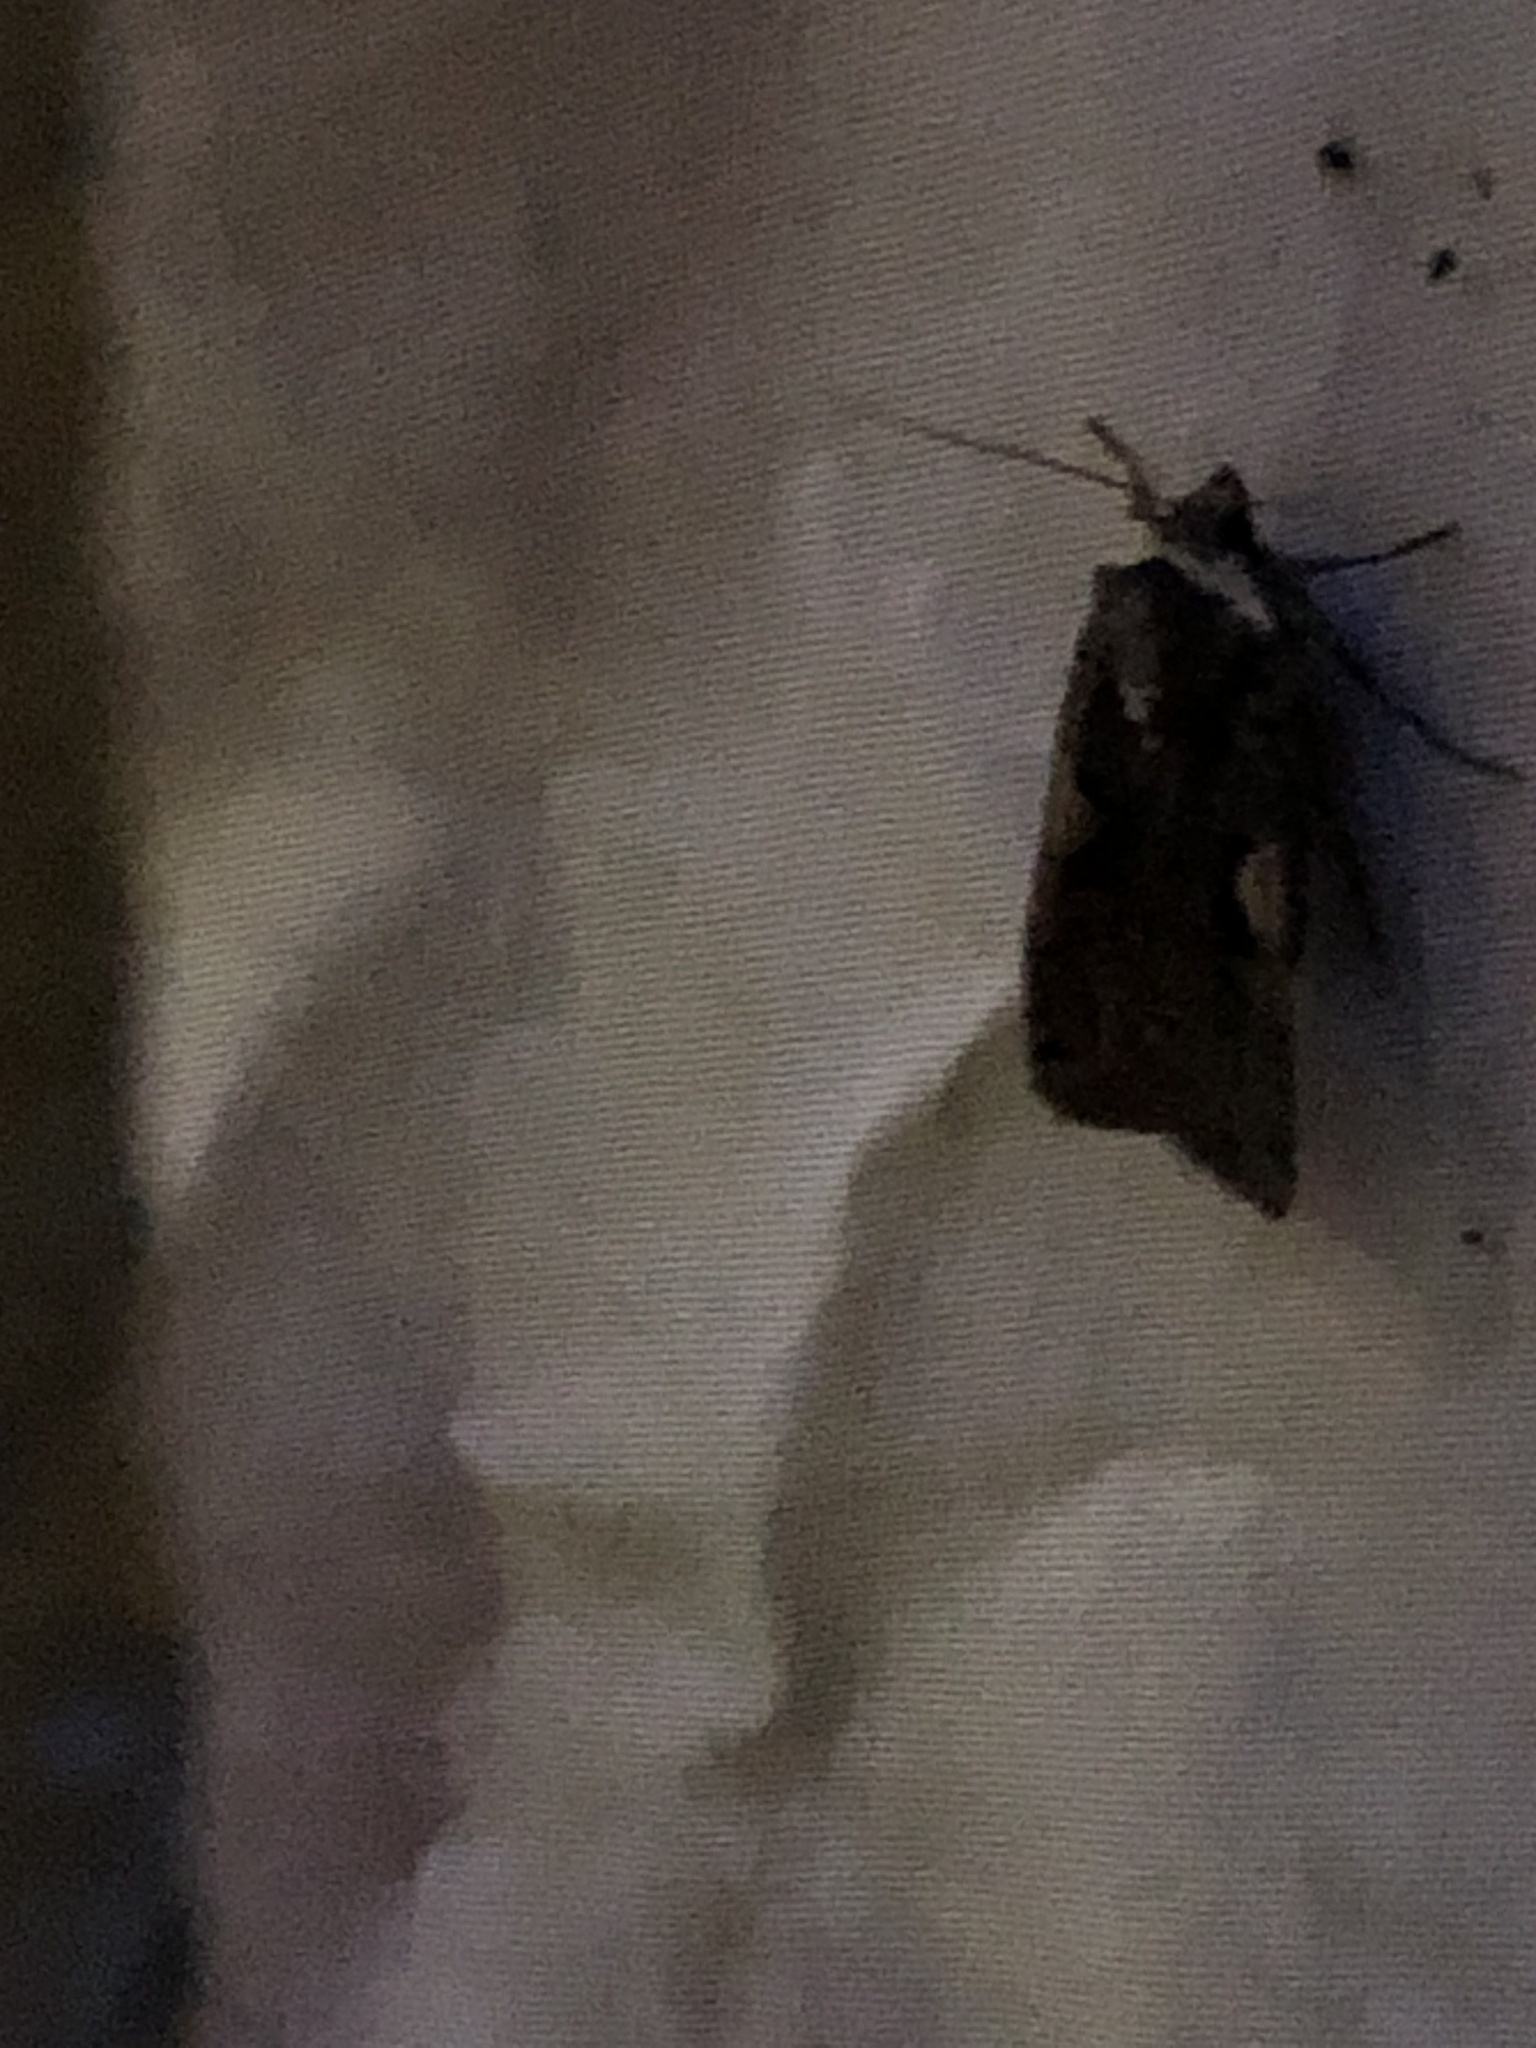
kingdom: Animalia
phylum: Arthropoda
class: Insecta
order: Lepidoptera
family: Noctuidae
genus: Xestia
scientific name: Xestia dolosa
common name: Cutworm moth
